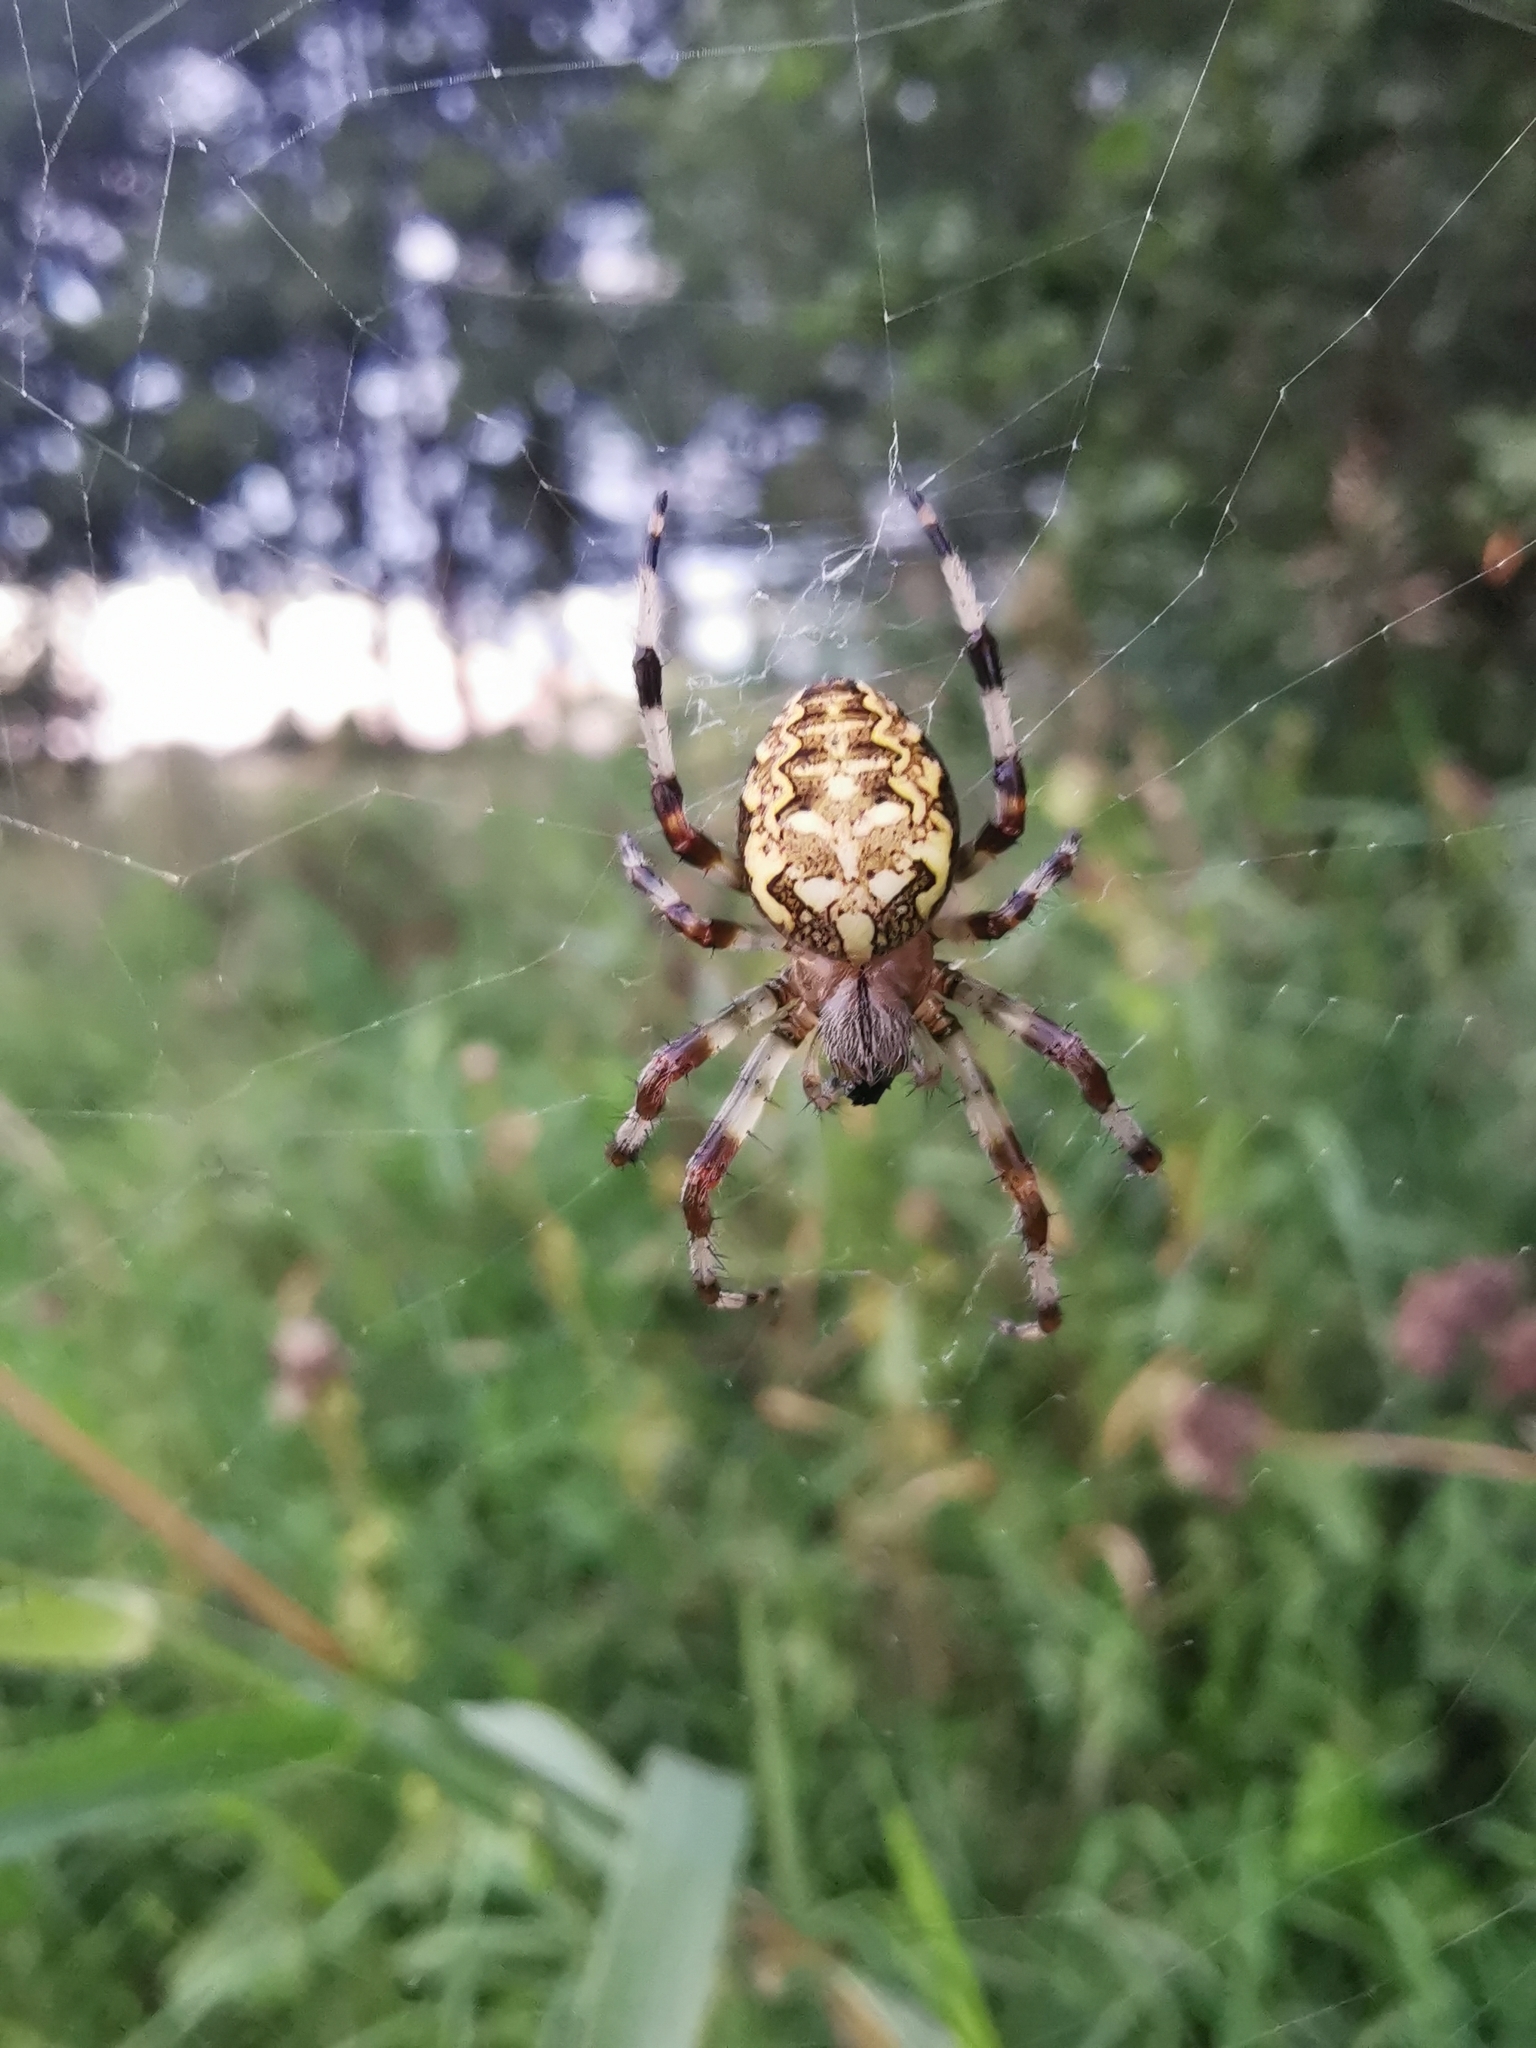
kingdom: Animalia
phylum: Arthropoda
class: Arachnida
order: Araneae
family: Araneidae
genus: Araneus
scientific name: Araneus marmoreus
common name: Marbled orbweaver
